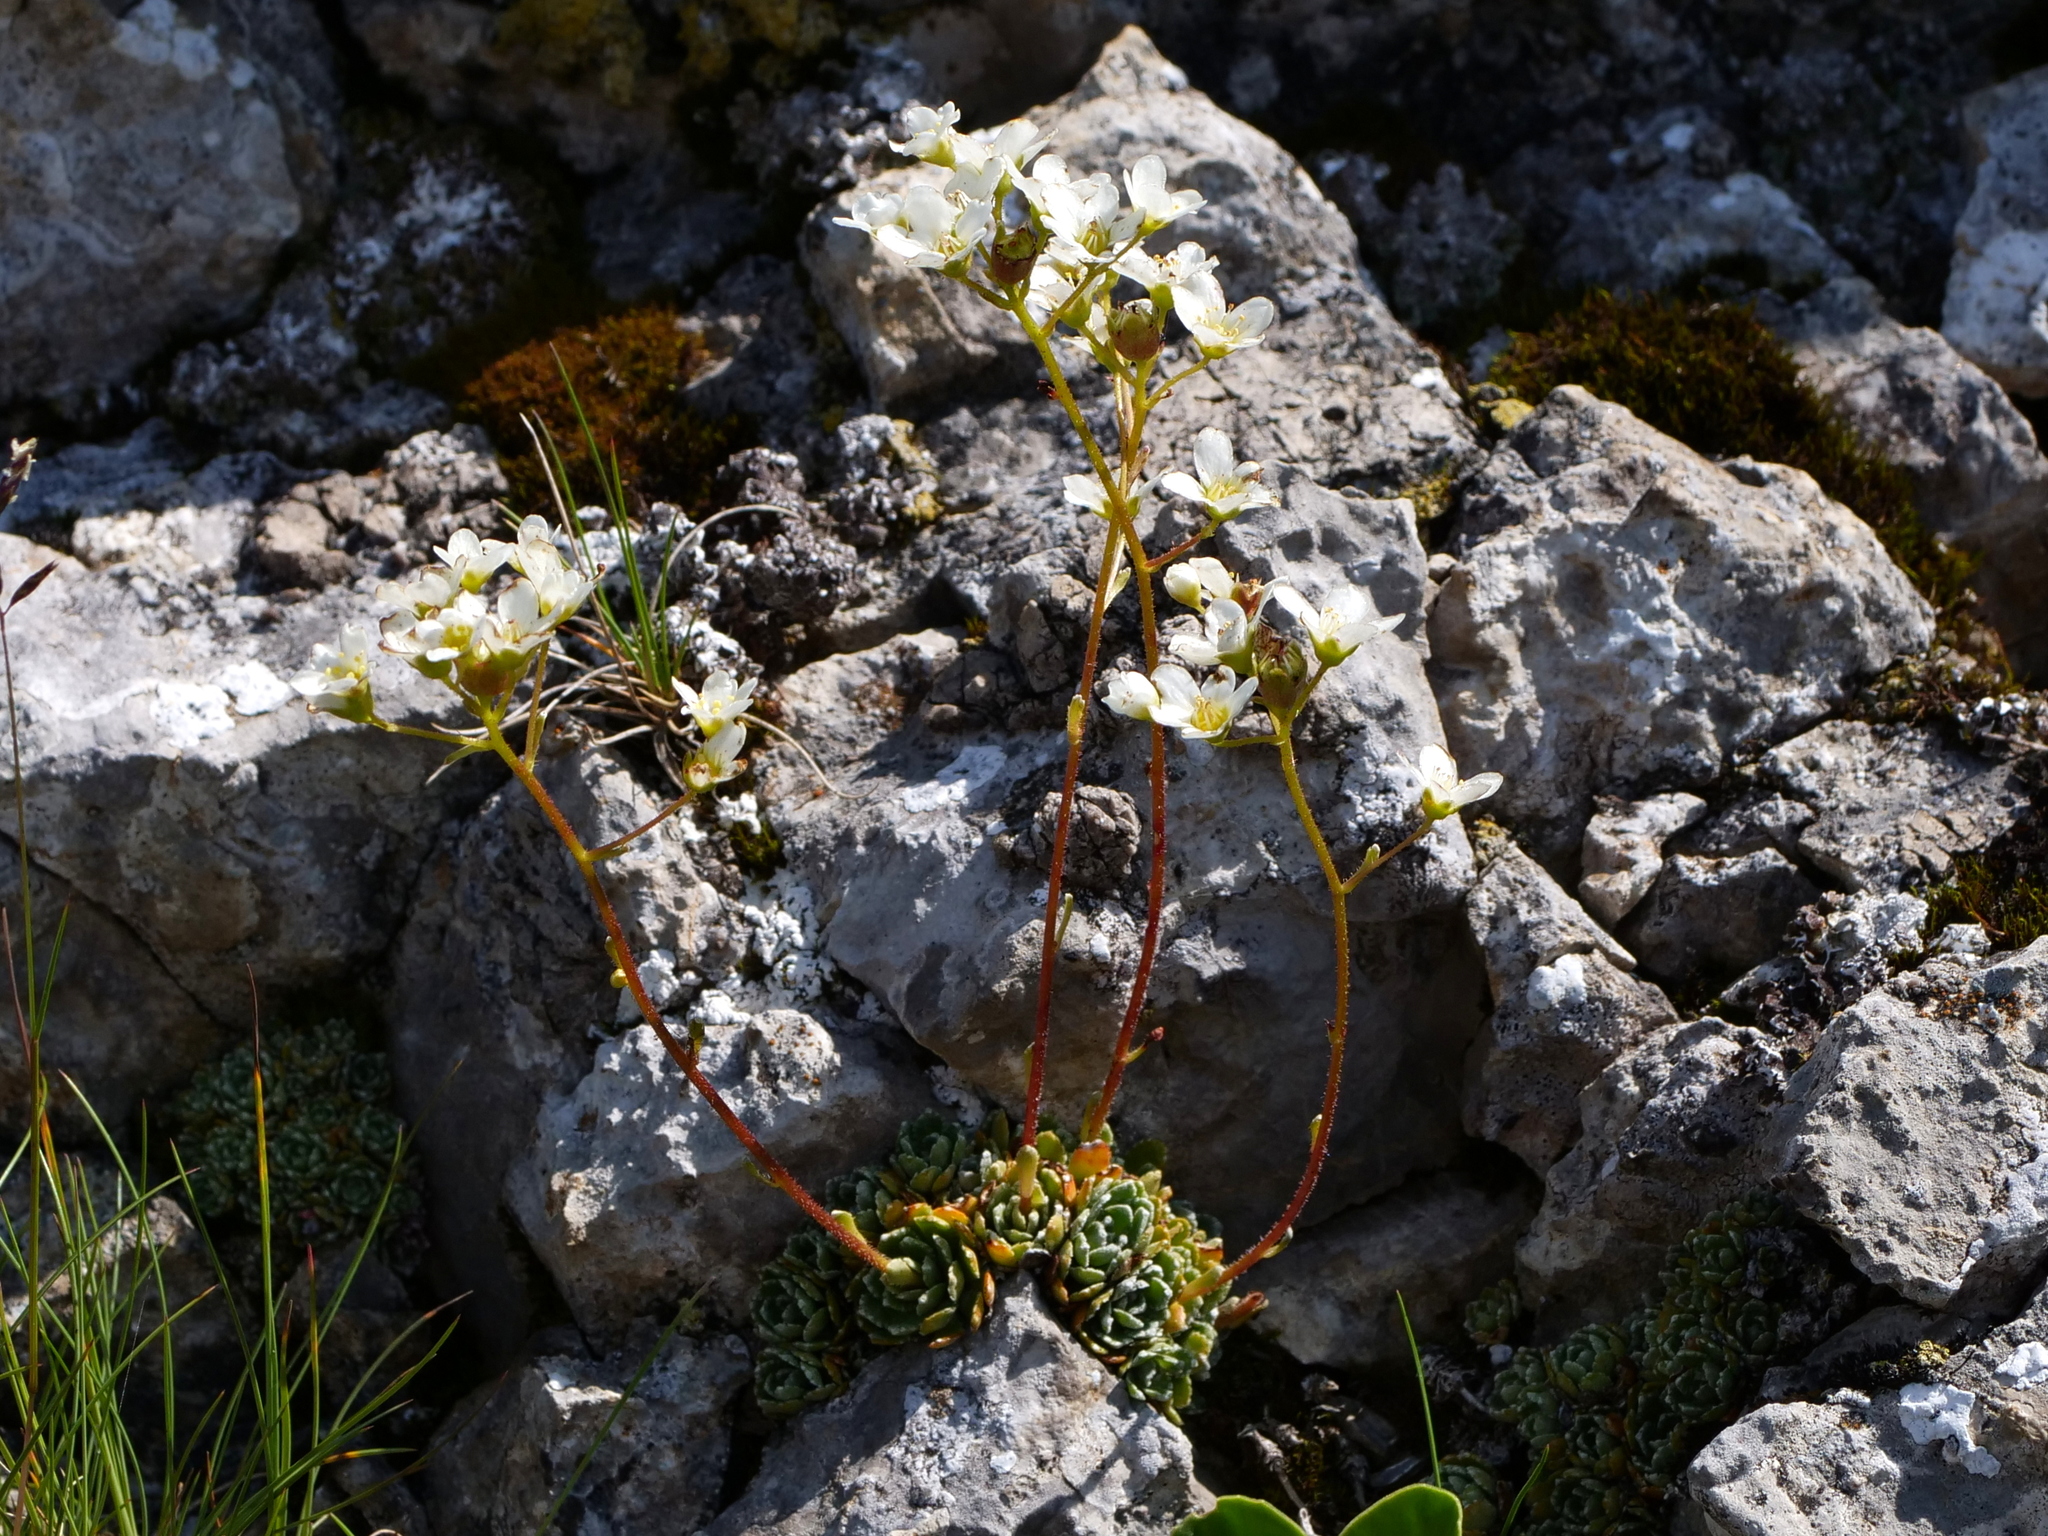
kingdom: Plantae
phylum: Tracheophyta
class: Magnoliopsida
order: Saxifragales
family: Saxifragaceae
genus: Saxifraga
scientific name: Saxifraga paniculata
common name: Livelong saxifrage
